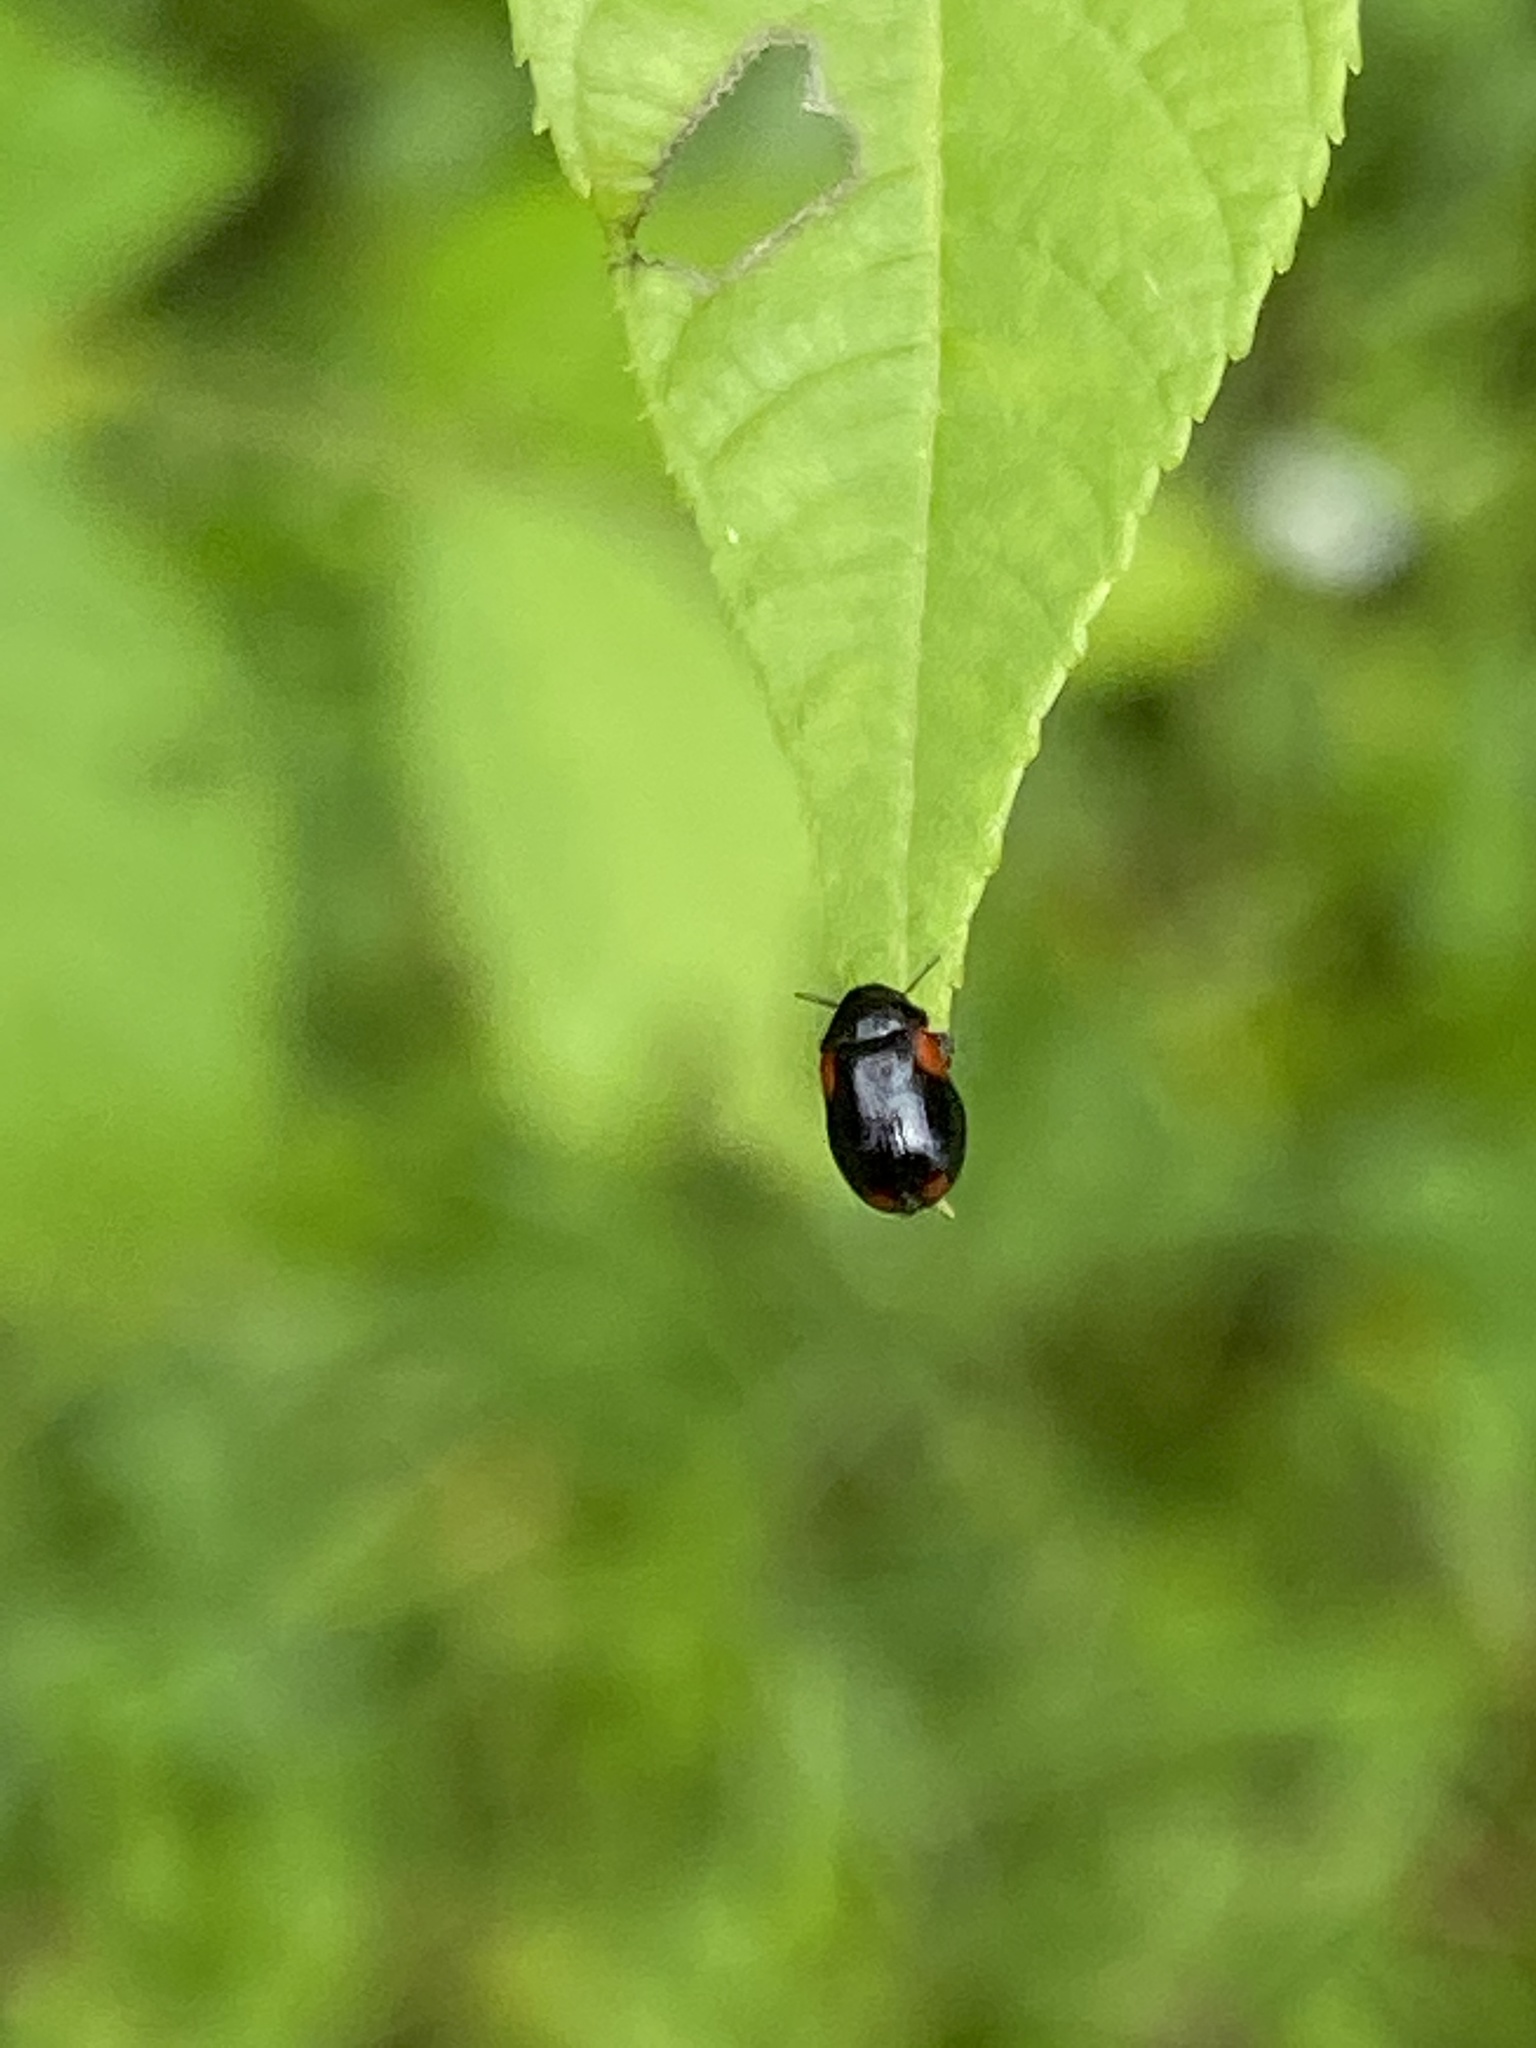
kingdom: Animalia
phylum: Arthropoda
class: Insecta
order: Coleoptera
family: Chrysomelidae
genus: Babia
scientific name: Babia quadriguttata
